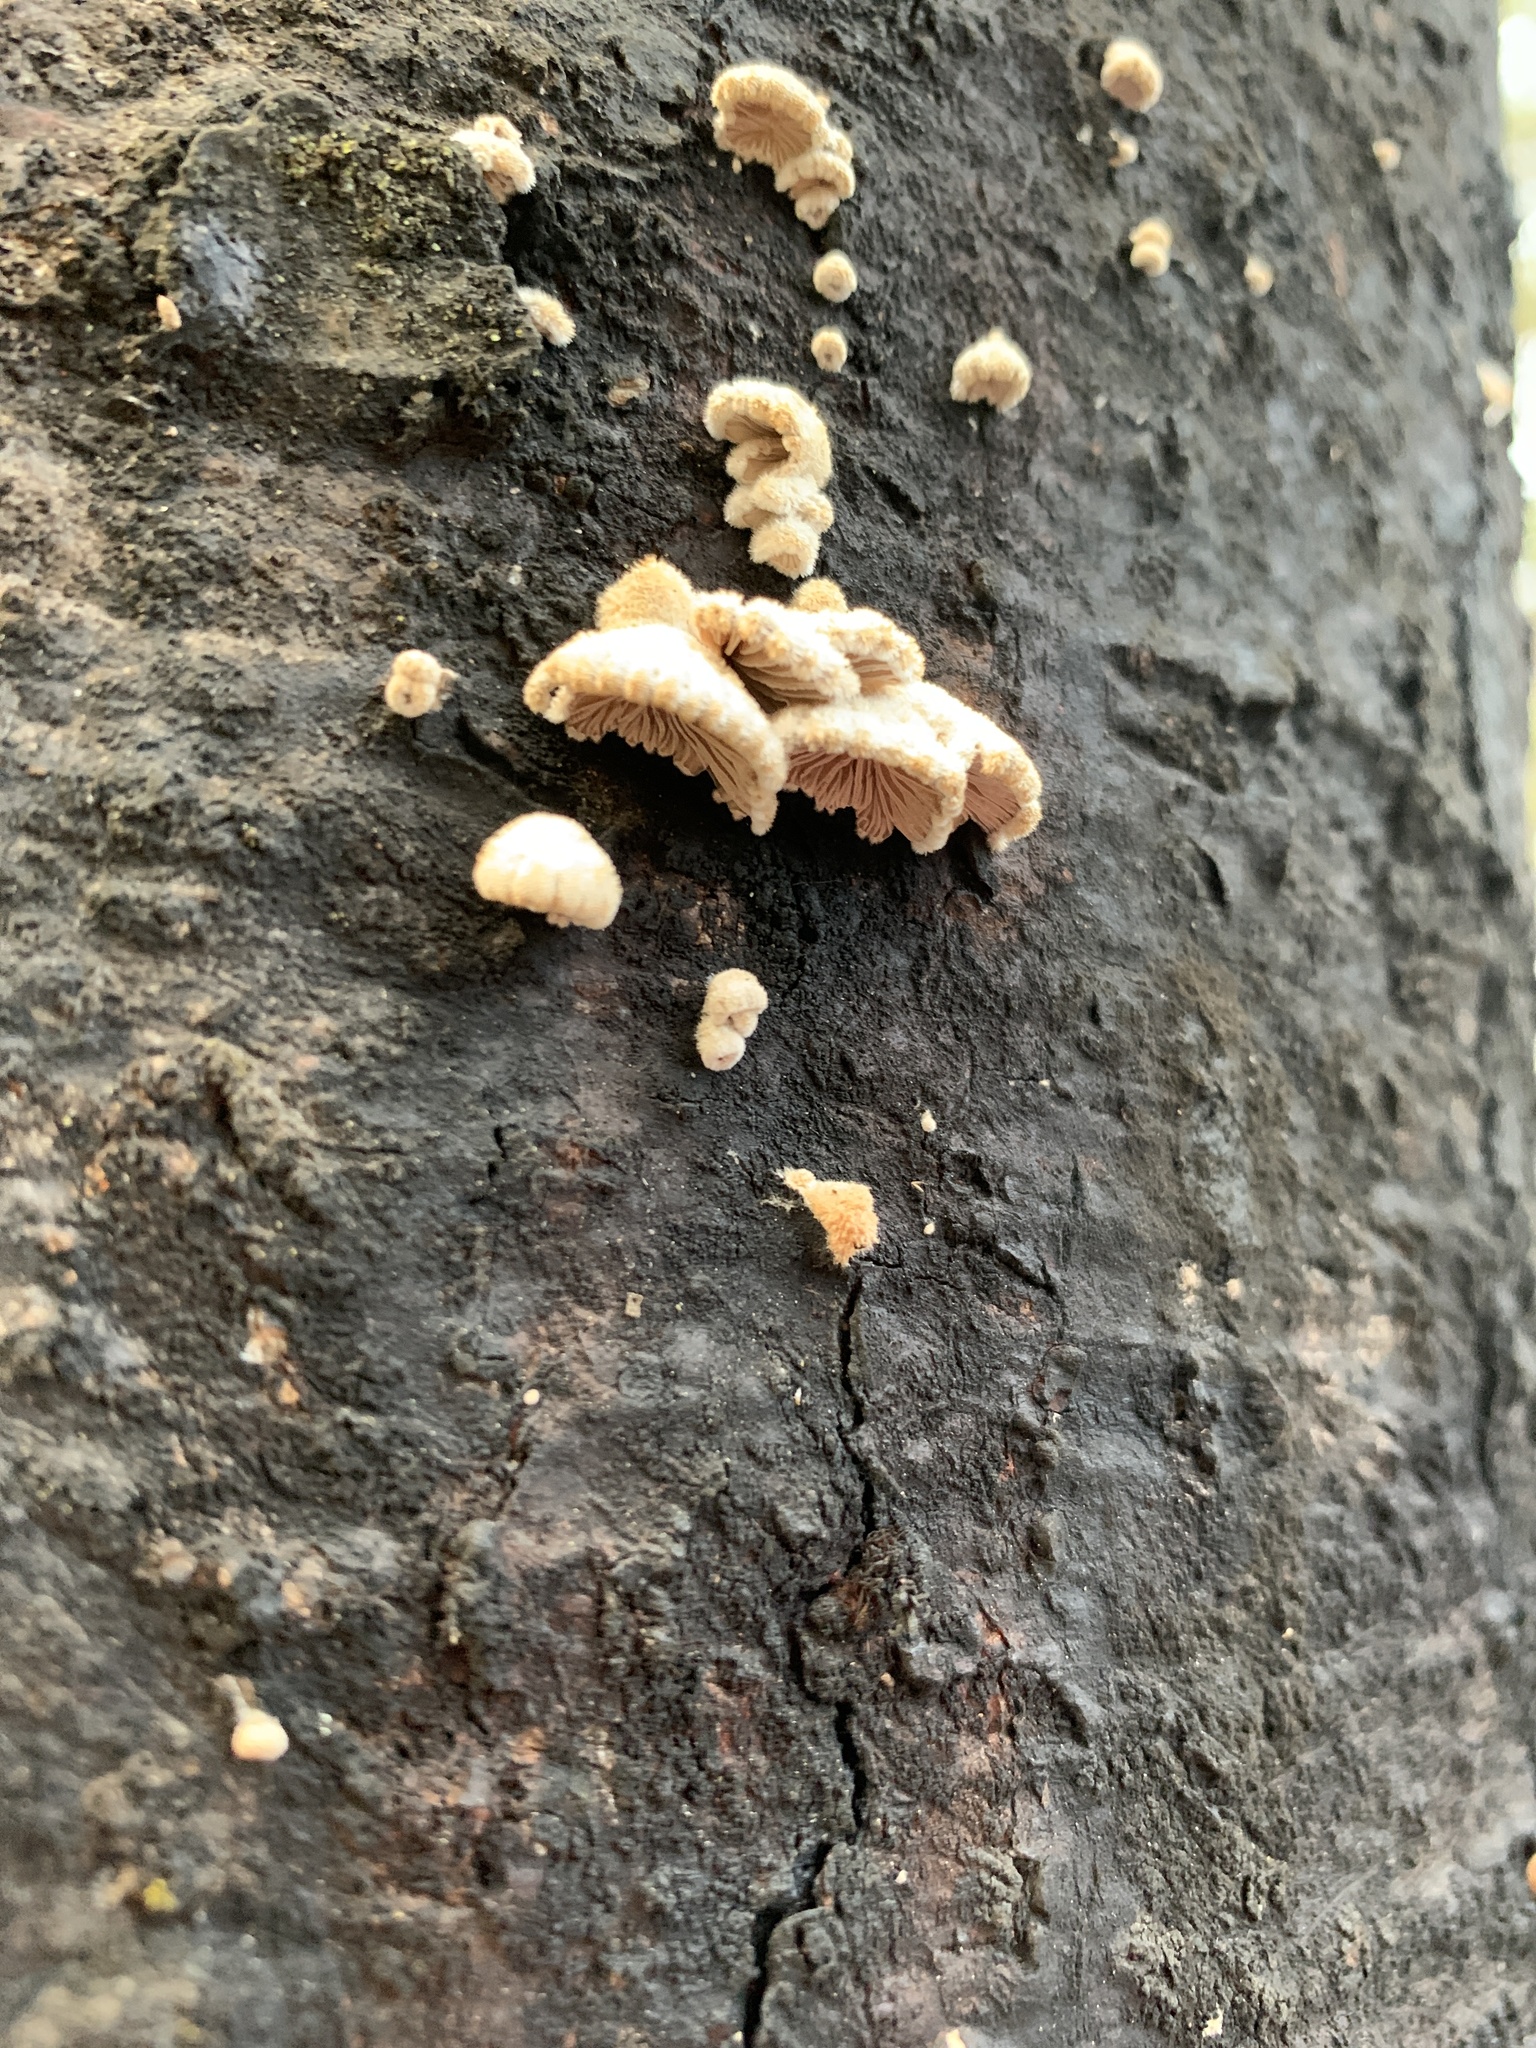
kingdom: Fungi
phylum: Basidiomycota
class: Agaricomycetes
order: Agaricales
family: Schizophyllaceae
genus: Schizophyllum
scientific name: Schizophyllum commune
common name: Common porecrust
